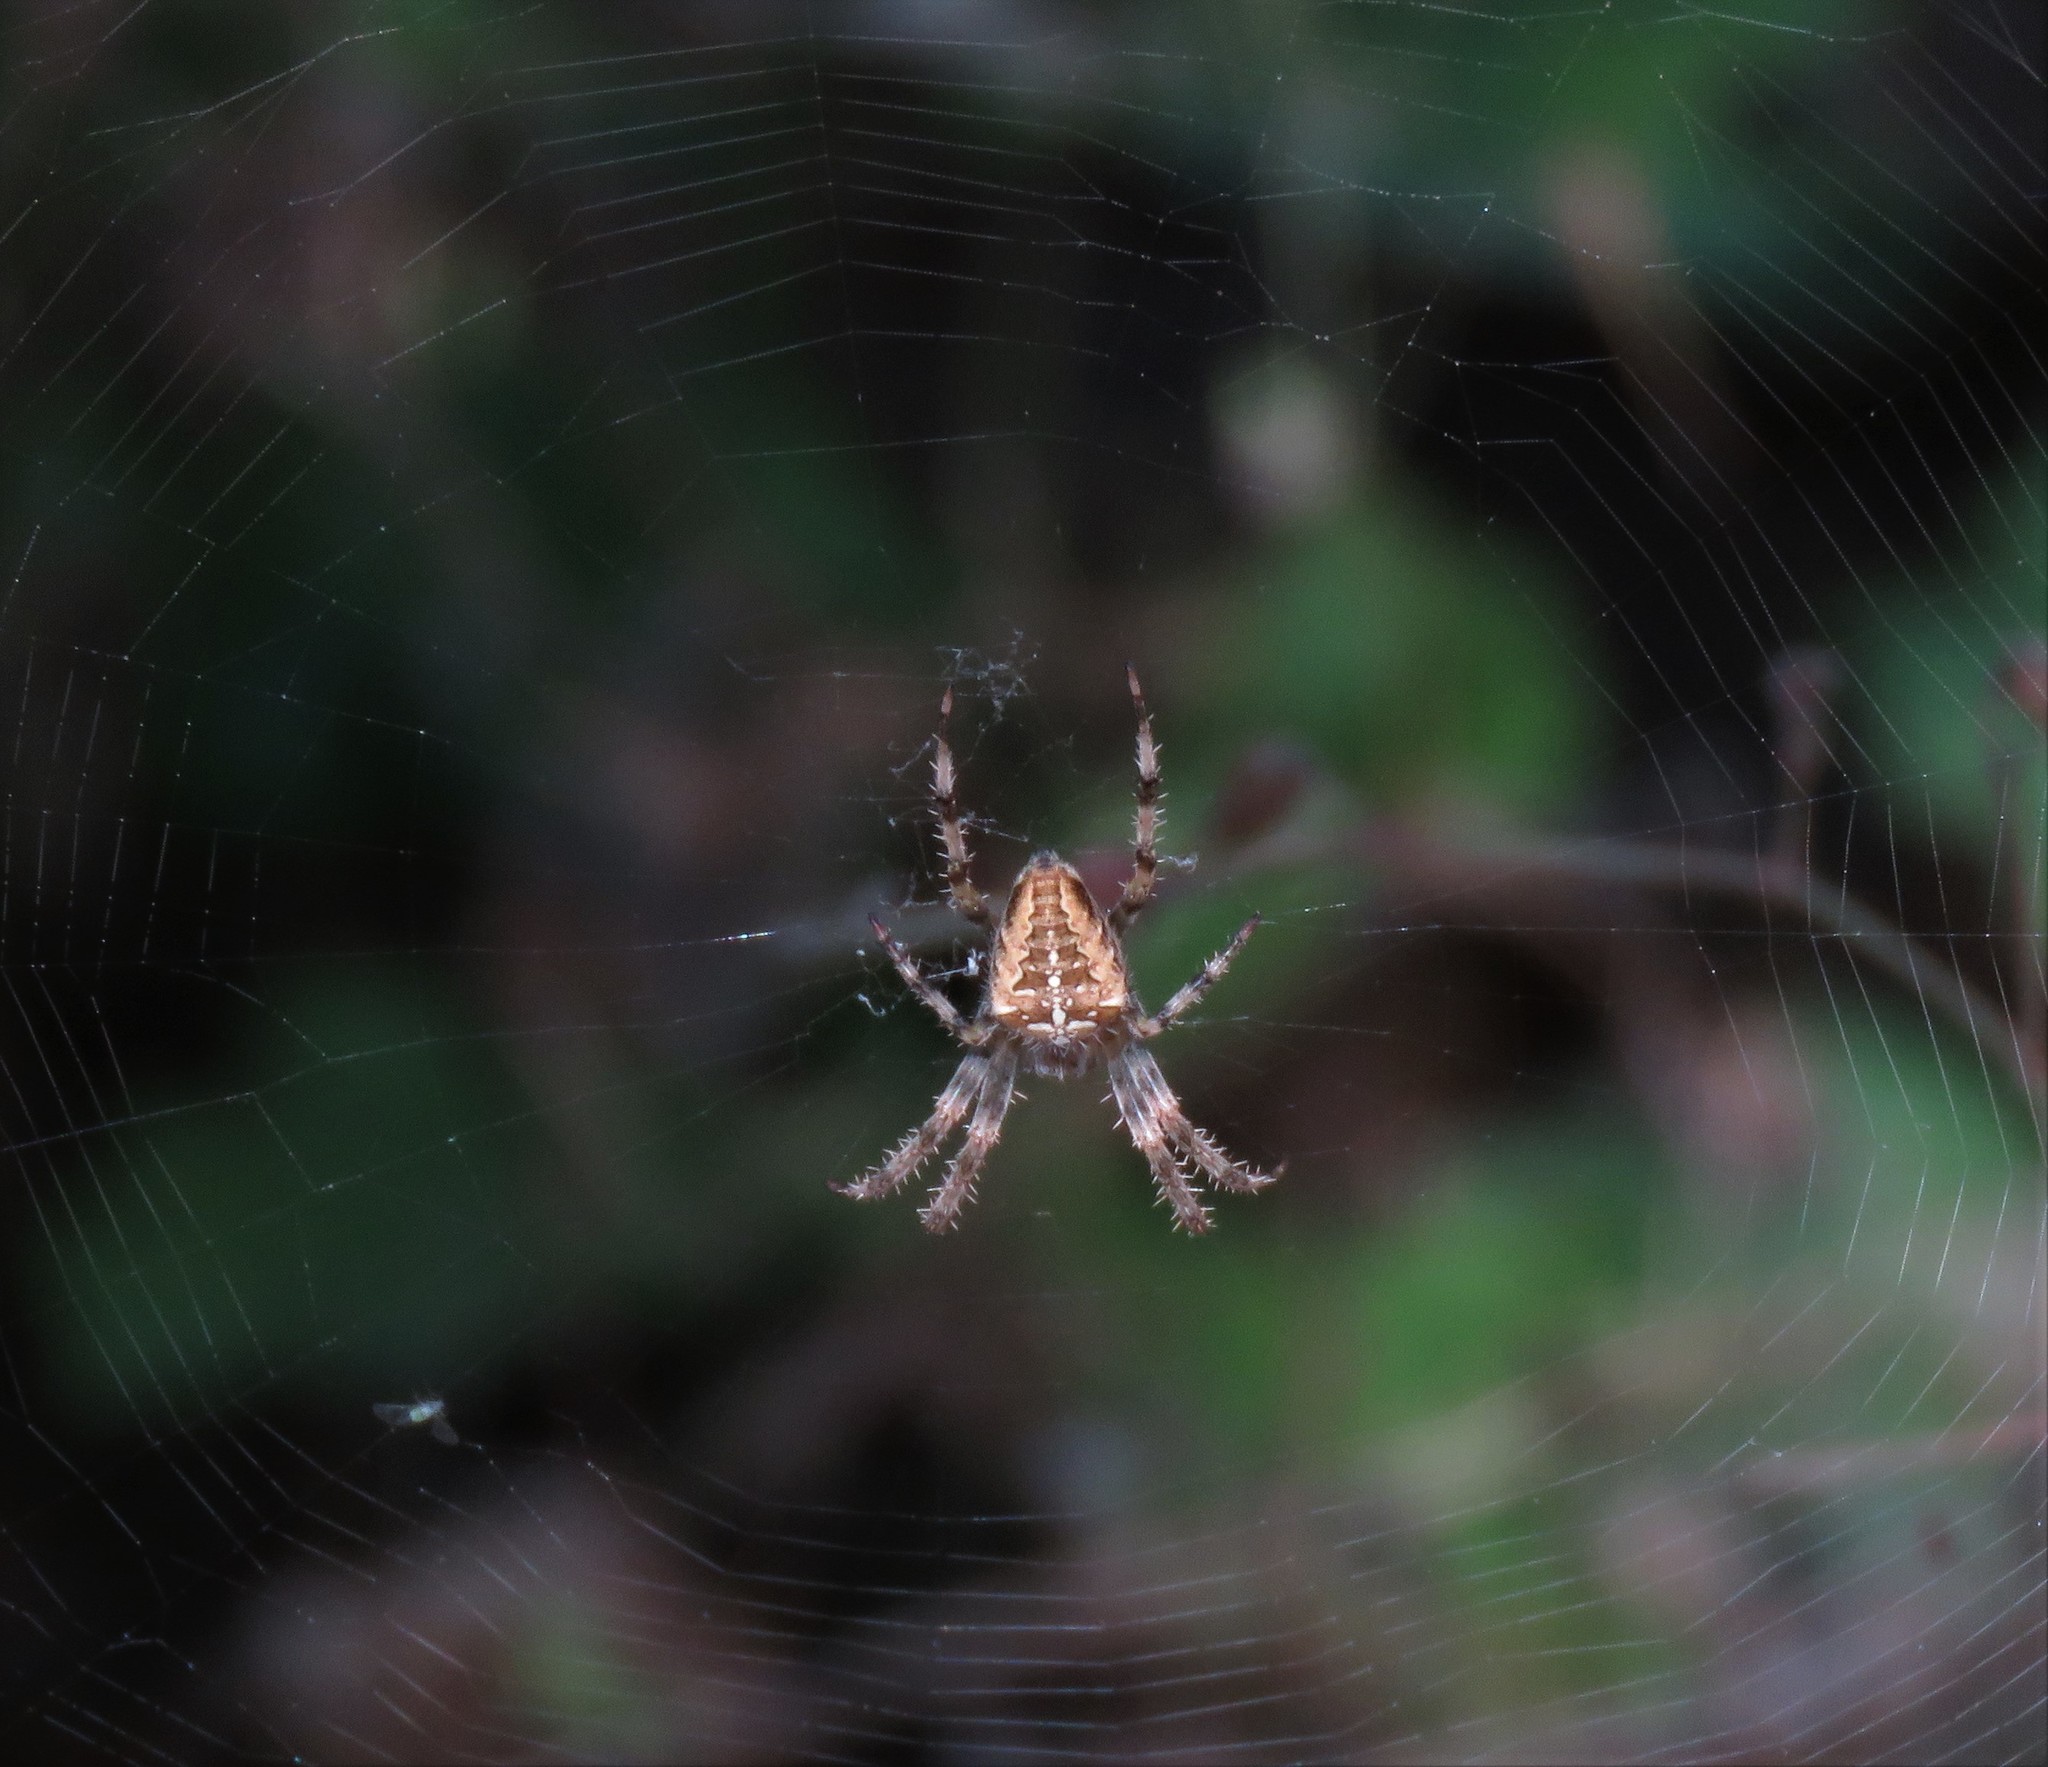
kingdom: Animalia
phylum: Arthropoda
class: Arachnida
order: Araneae
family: Araneidae
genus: Araneus
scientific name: Araneus diadematus
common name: Cross orbweaver
